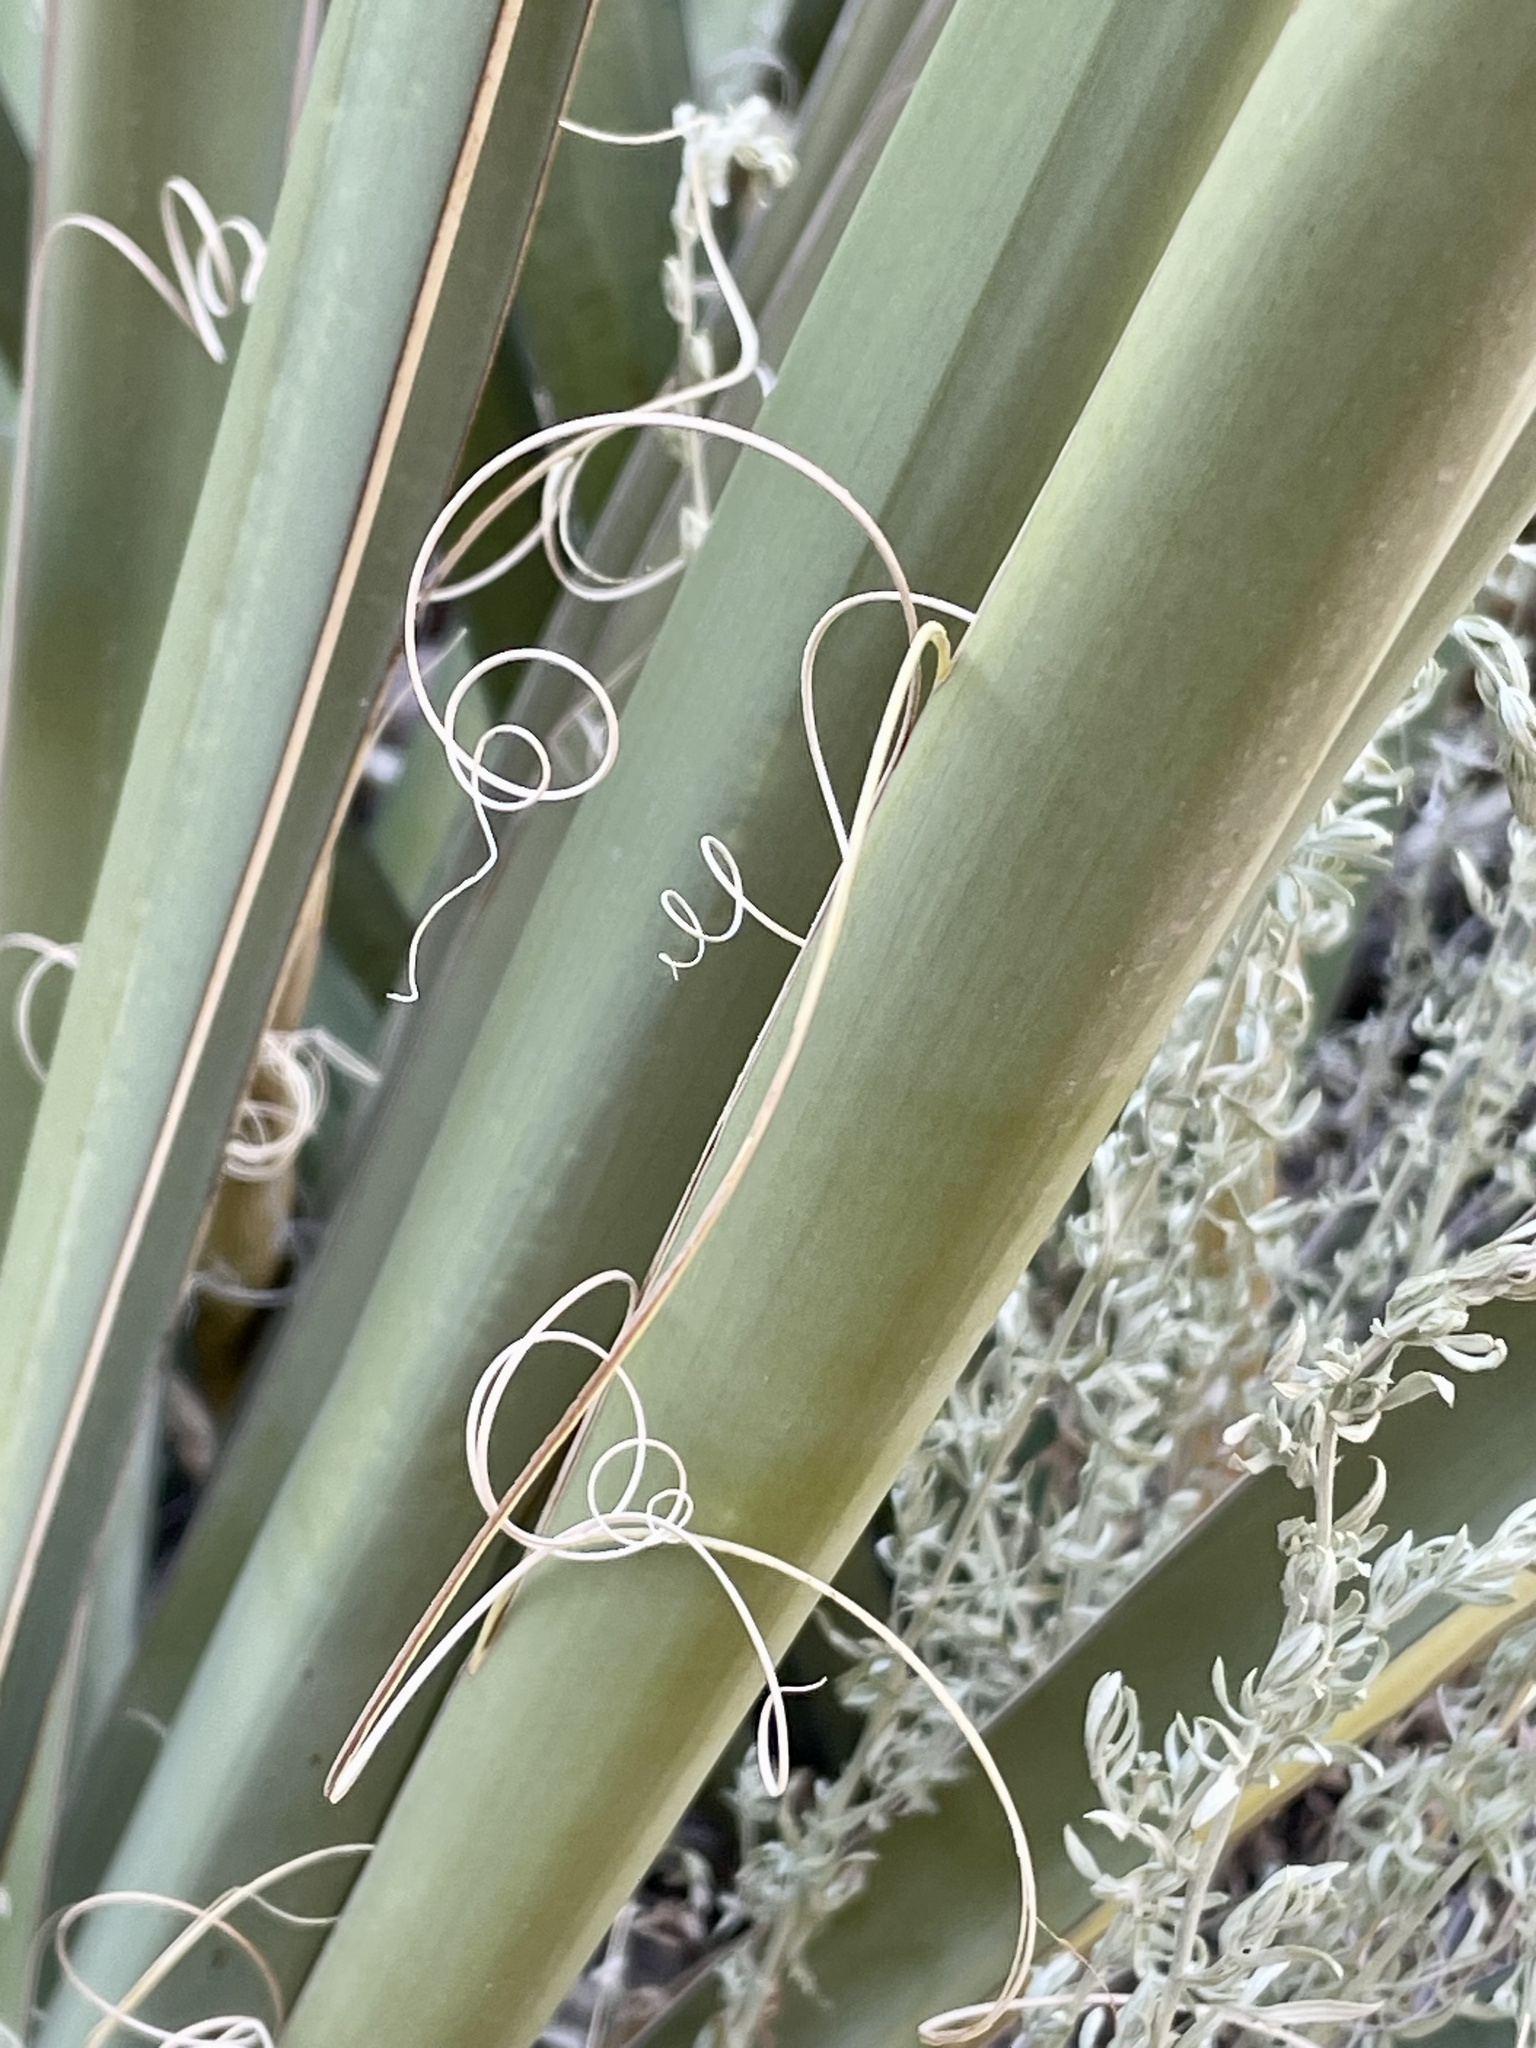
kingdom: Plantae
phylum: Tracheophyta
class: Liliopsida
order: Asparagales
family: Asparagaceae
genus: Yucca
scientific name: Yucca baccata
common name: Banana yucca
